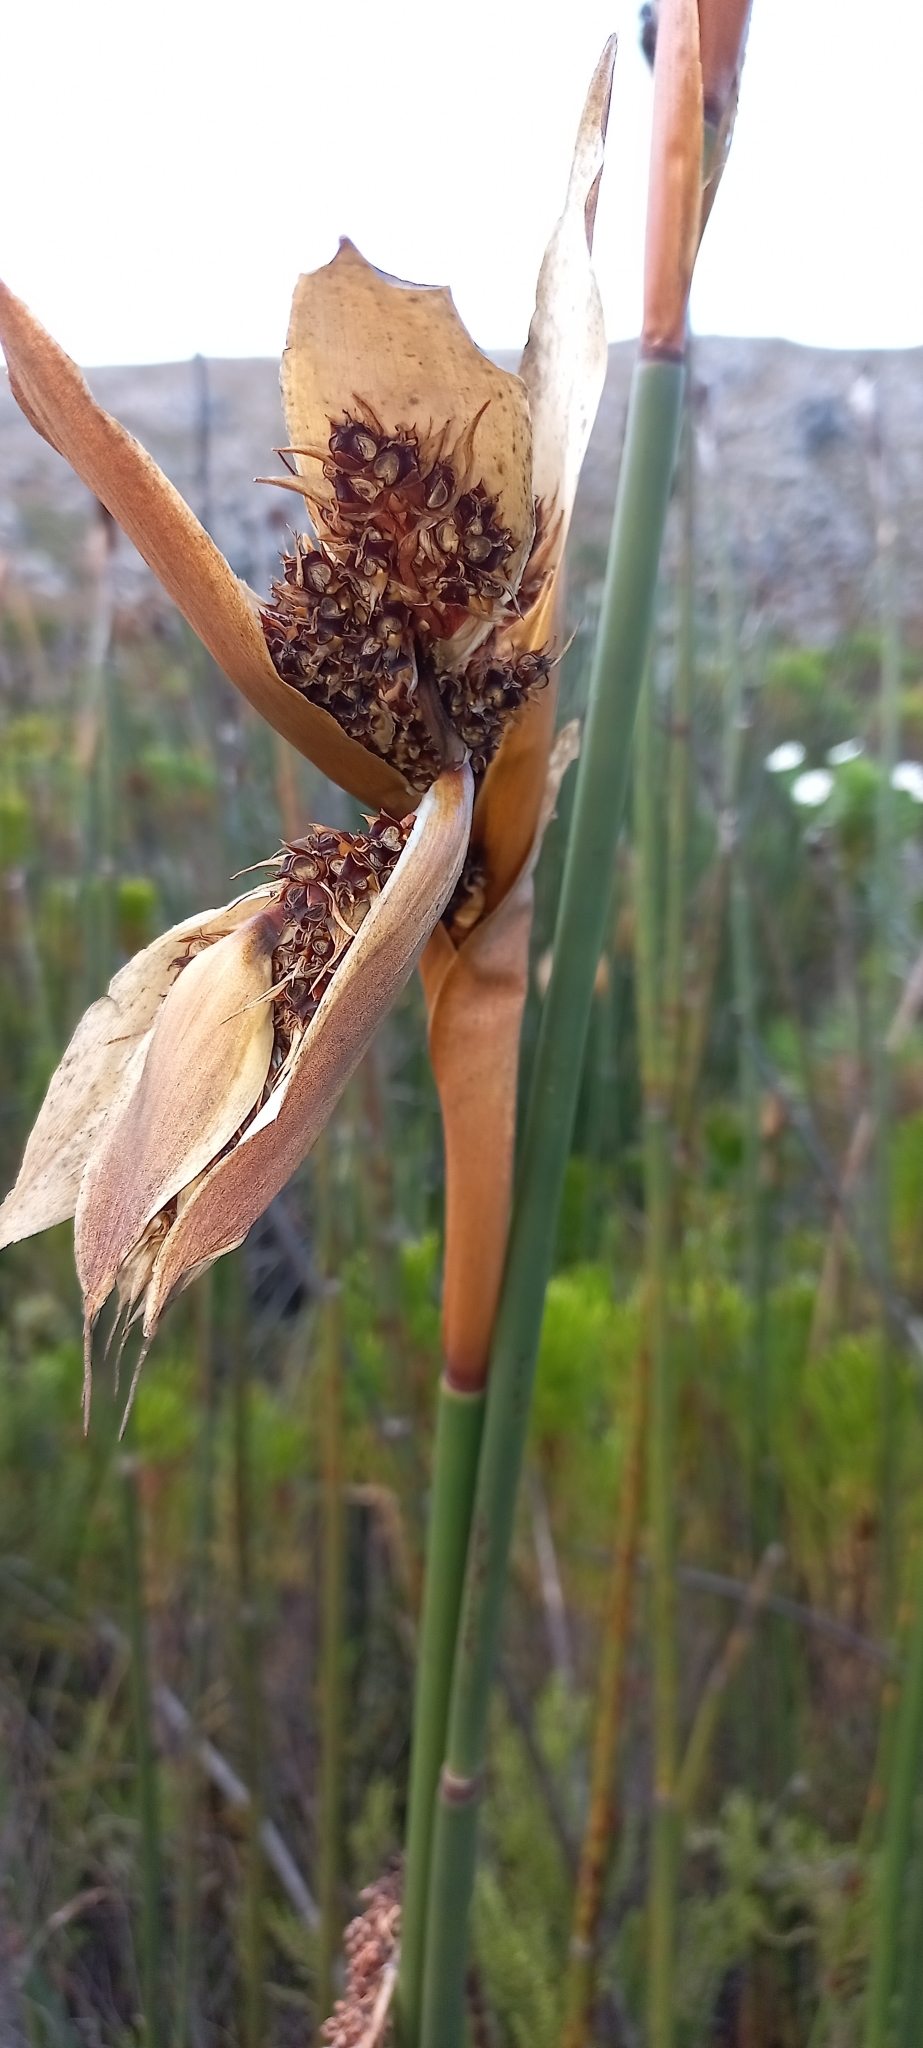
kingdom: Plantae
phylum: Tracheophyta
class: Liliopsida
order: Poales
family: Restionaceae
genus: Elegia
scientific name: Elegia mucronata
